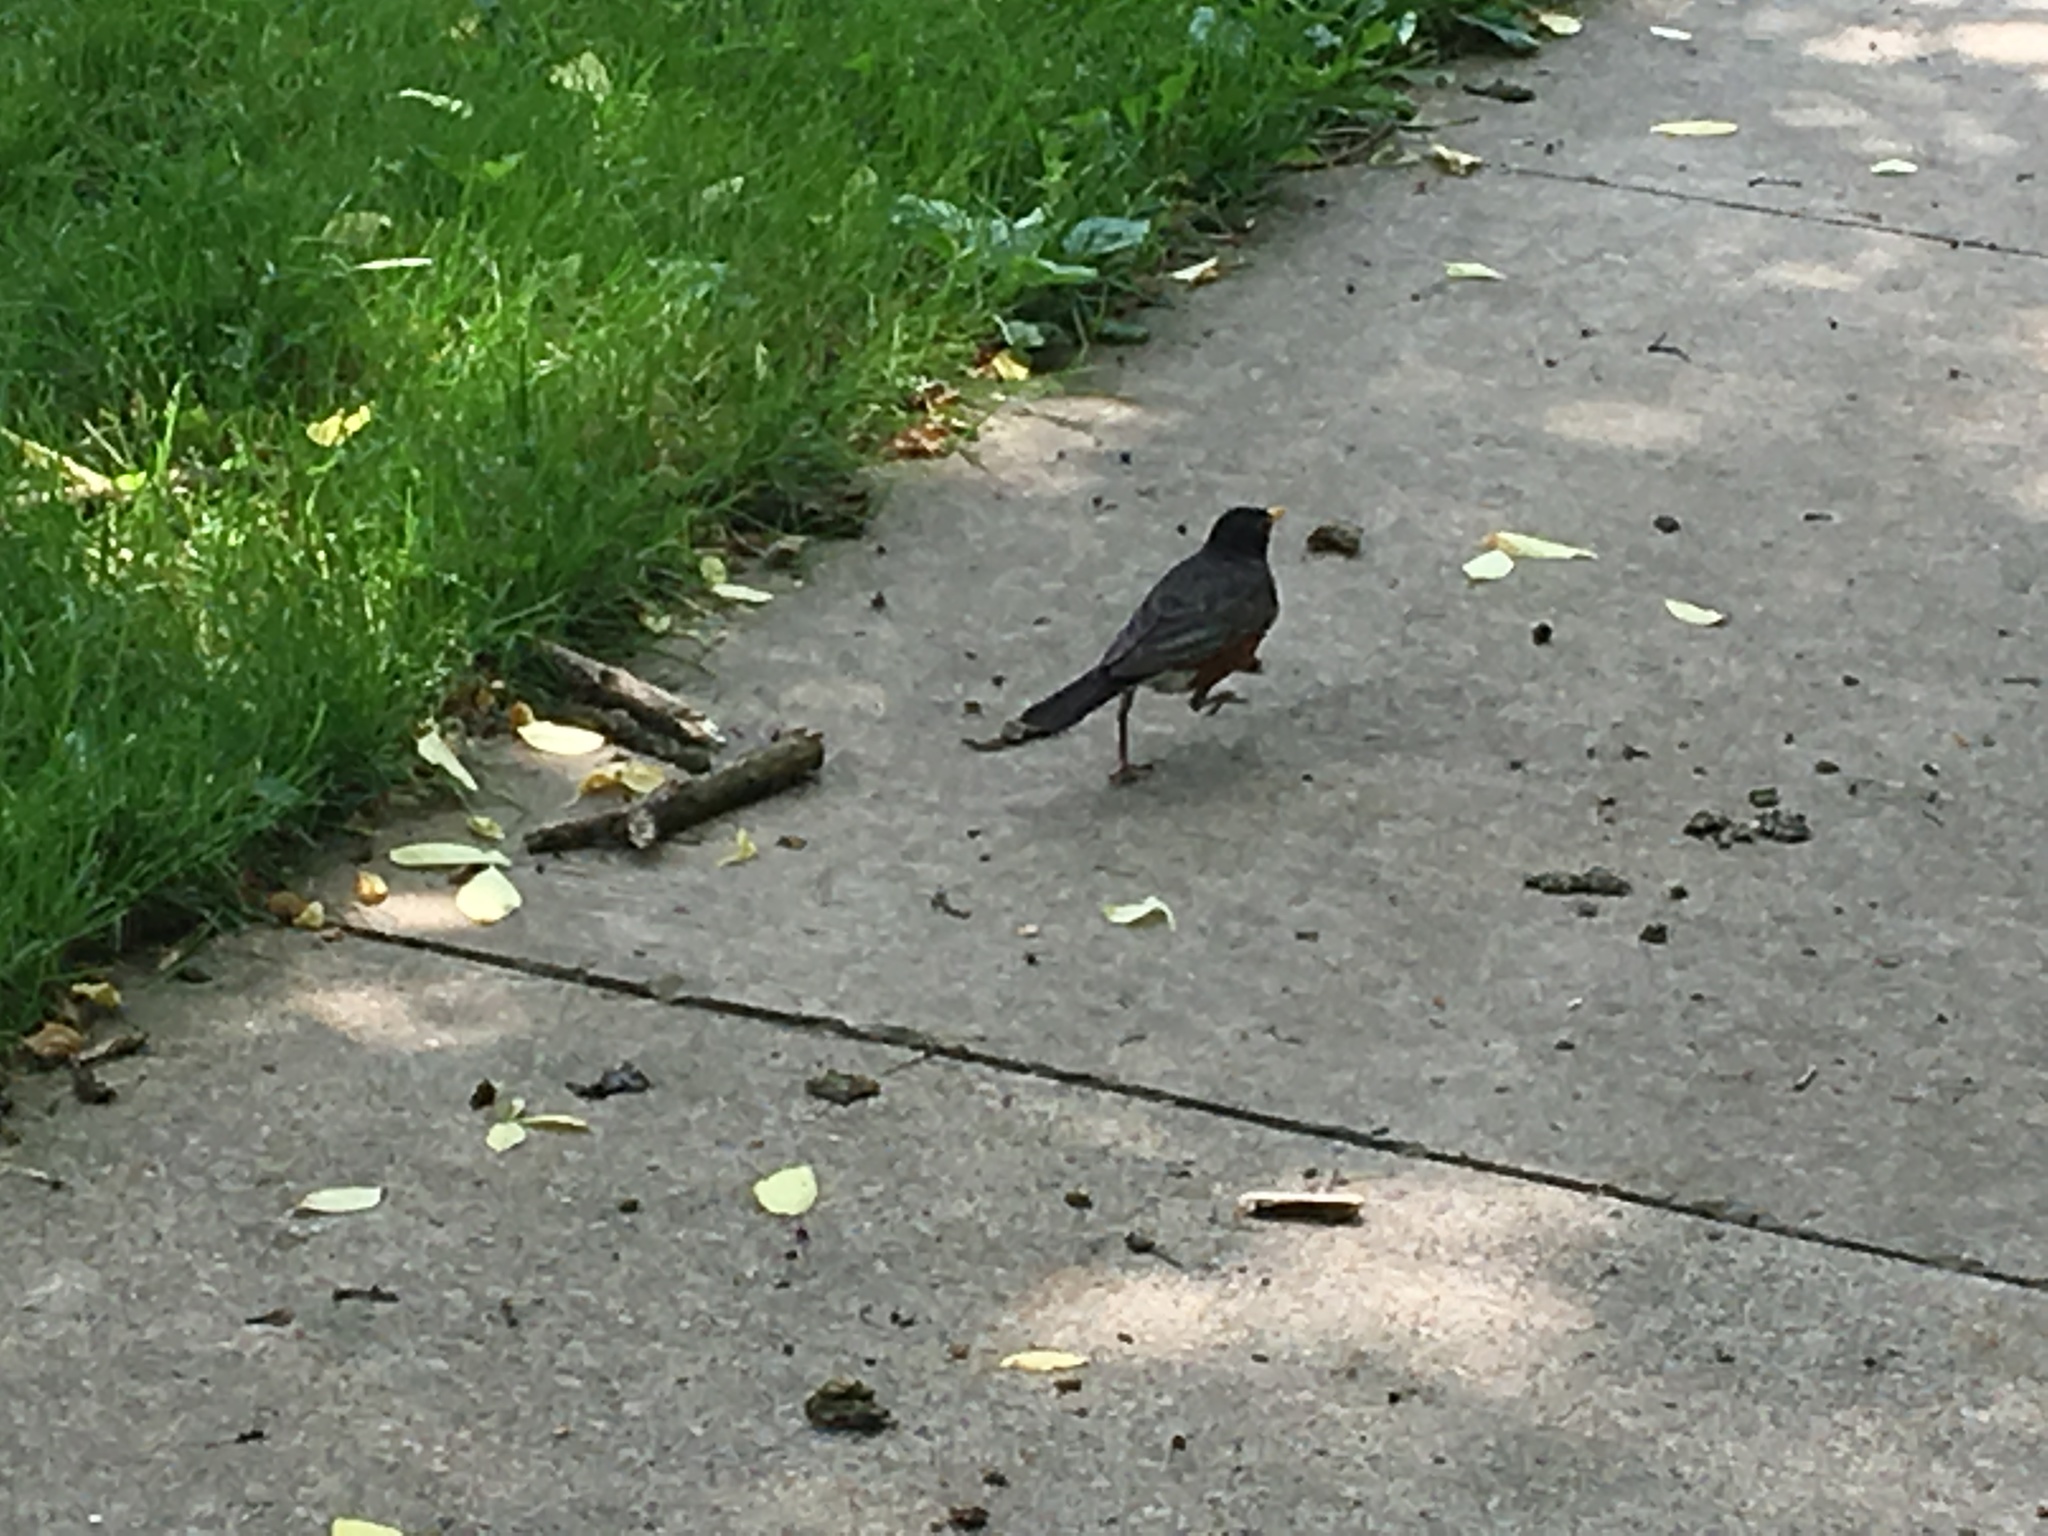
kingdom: Animalia
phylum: Chordata
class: Aves
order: Passeriformes
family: Turdidae
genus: Turdus
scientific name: Turdus migratorius
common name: American robin
